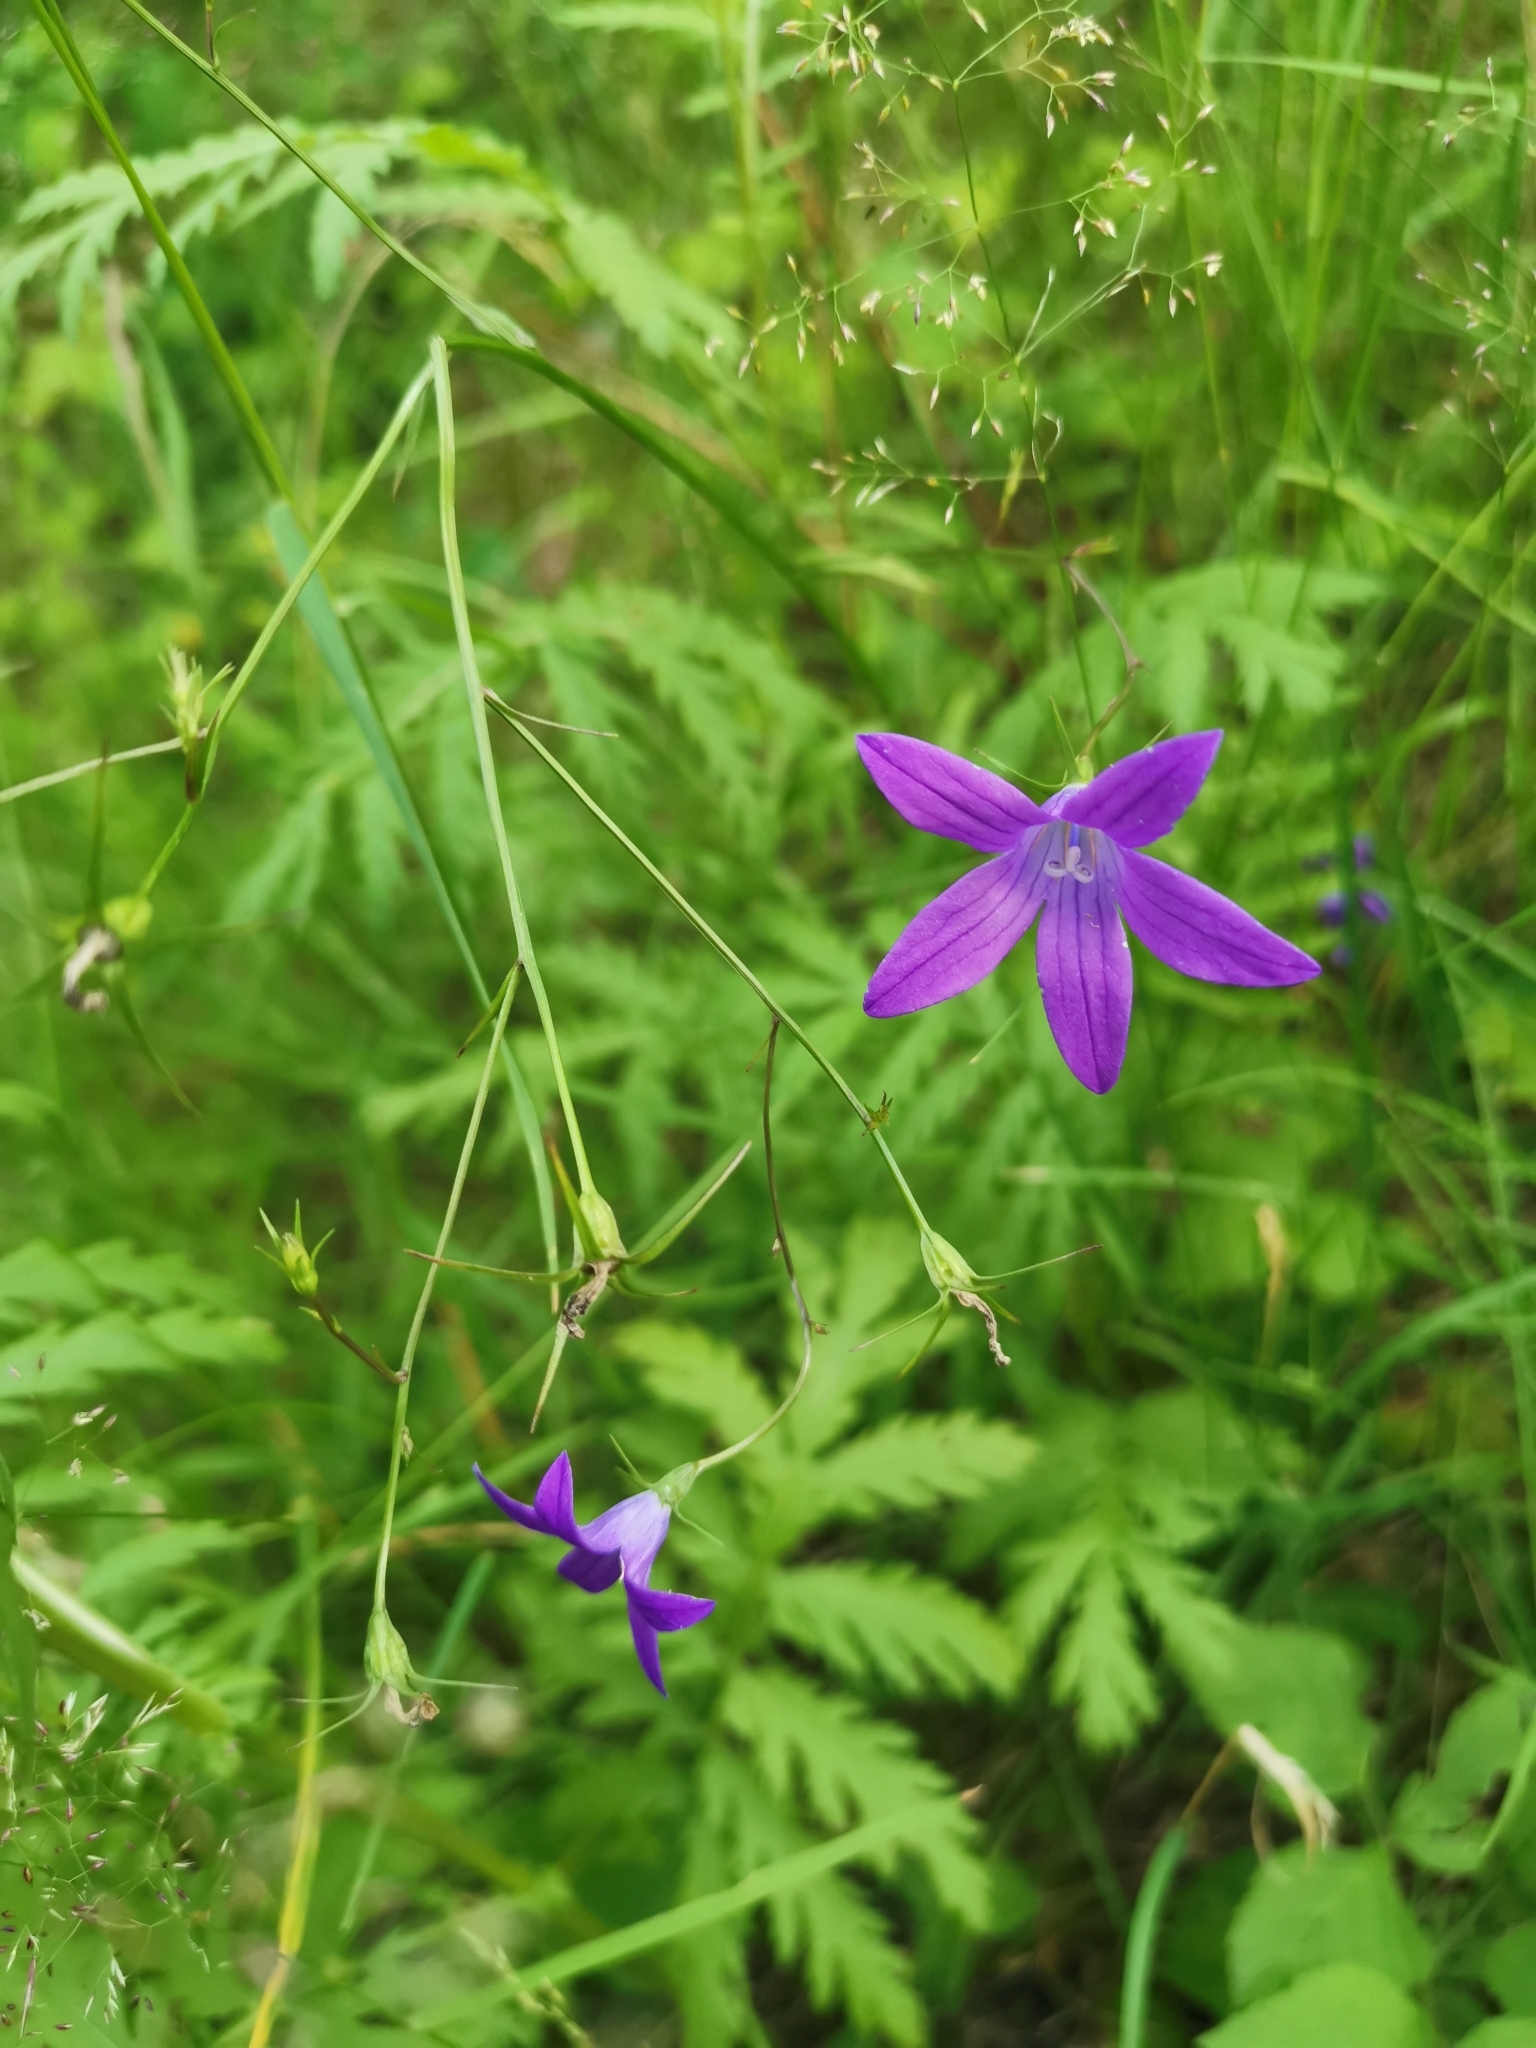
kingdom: Plantae
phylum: Tracheophyta
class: Magnoliopsida
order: Asterales
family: Campanulaceae
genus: Campanula
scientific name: Campanula patula
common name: Spreading bellflower
